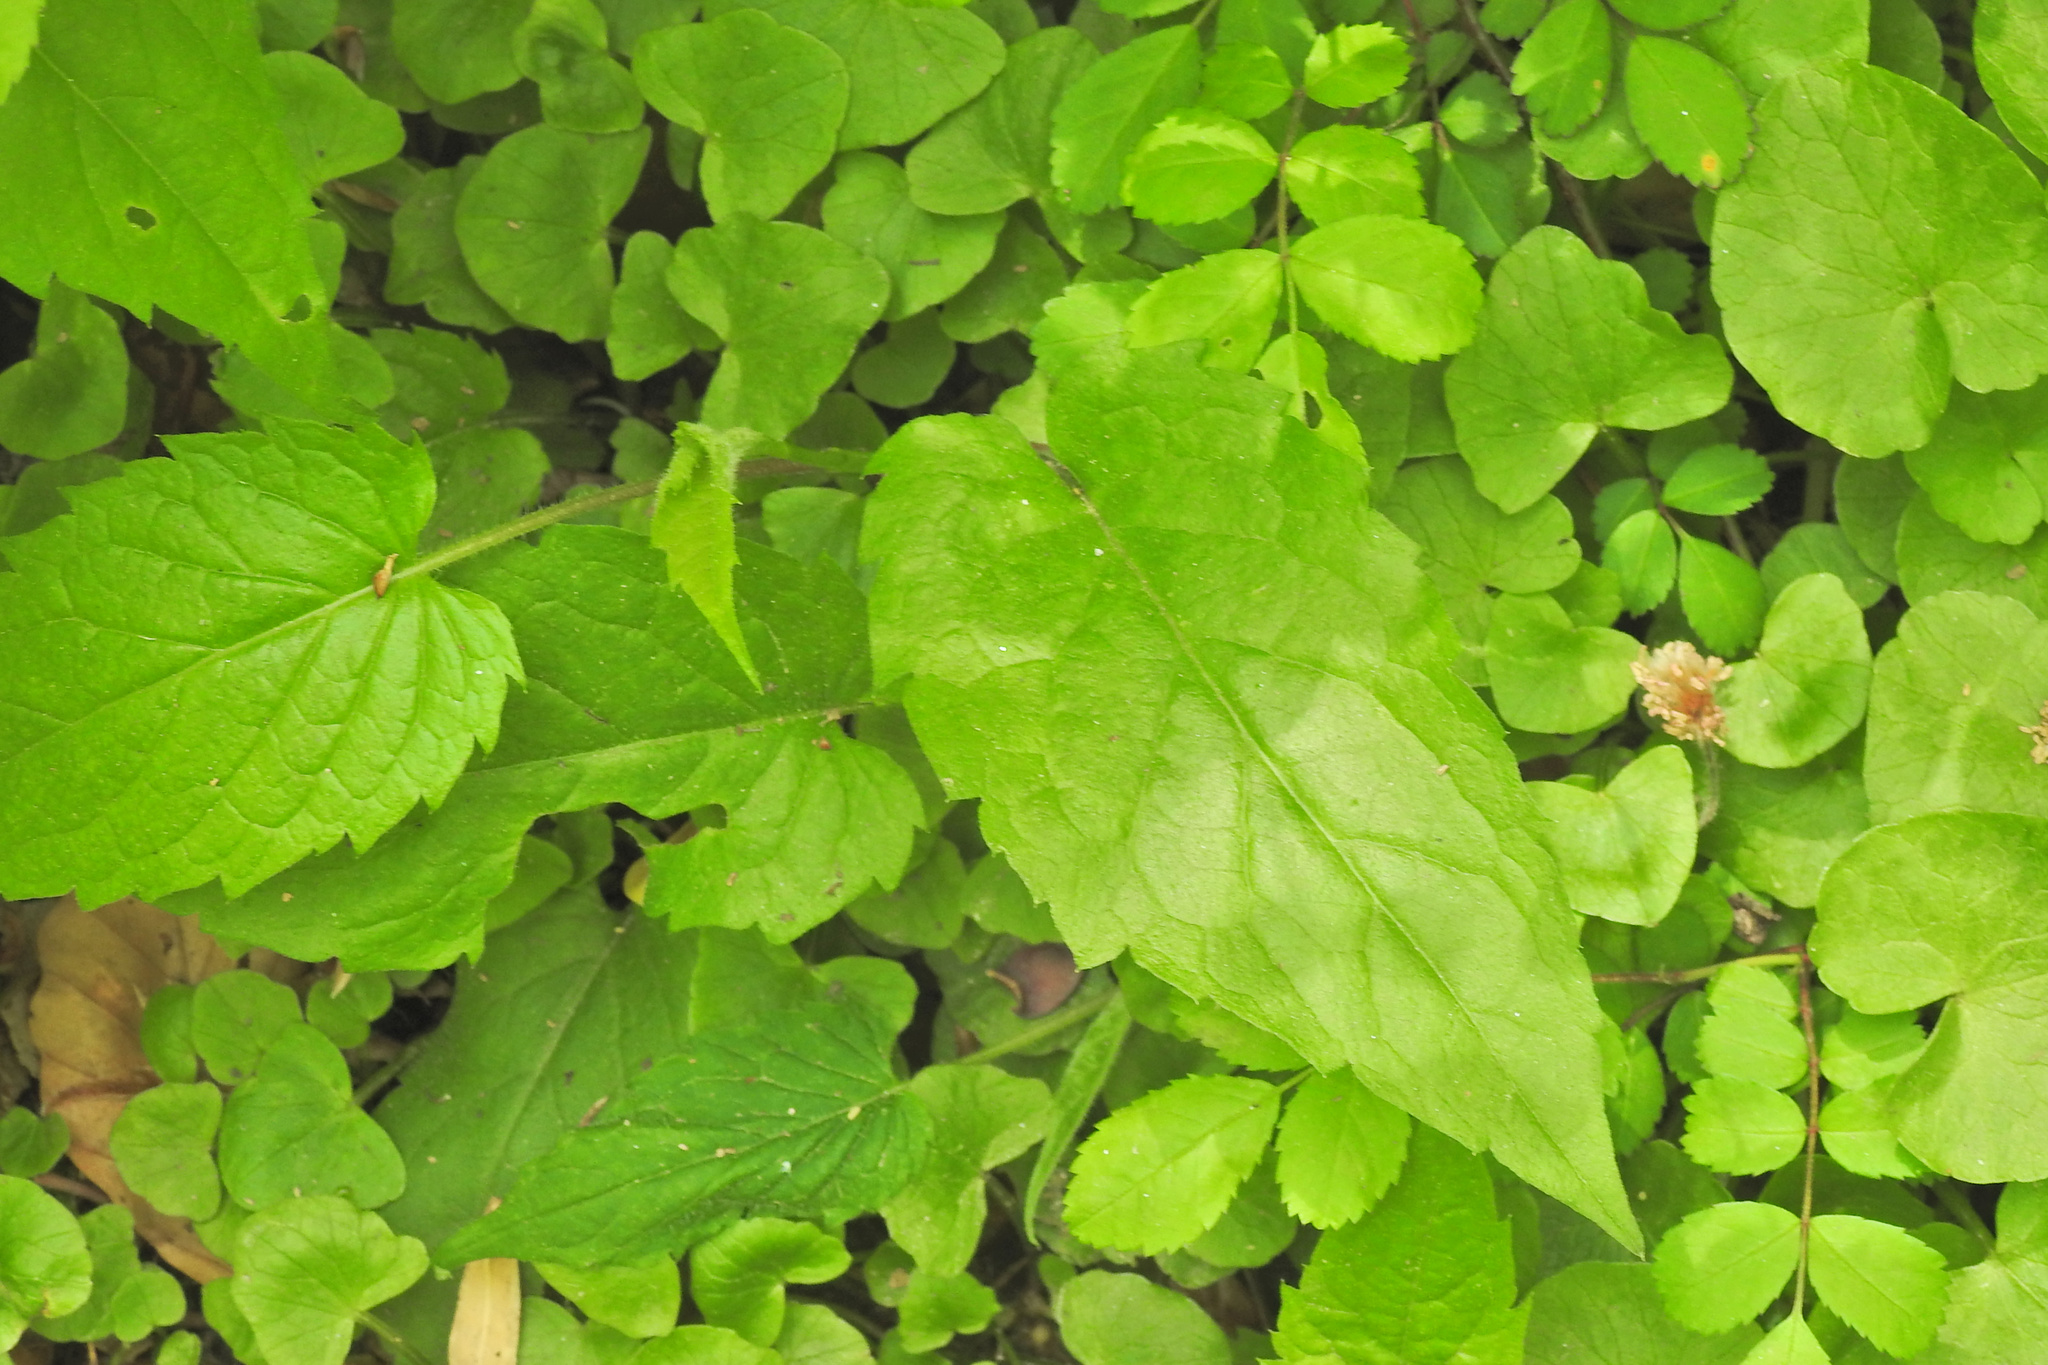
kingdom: Plantae
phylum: Tracheophyta
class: Magnoliopsida
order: Asterales
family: Asteraceae
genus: Eurybia
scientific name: Eurybia divaricata
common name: White wood aster
